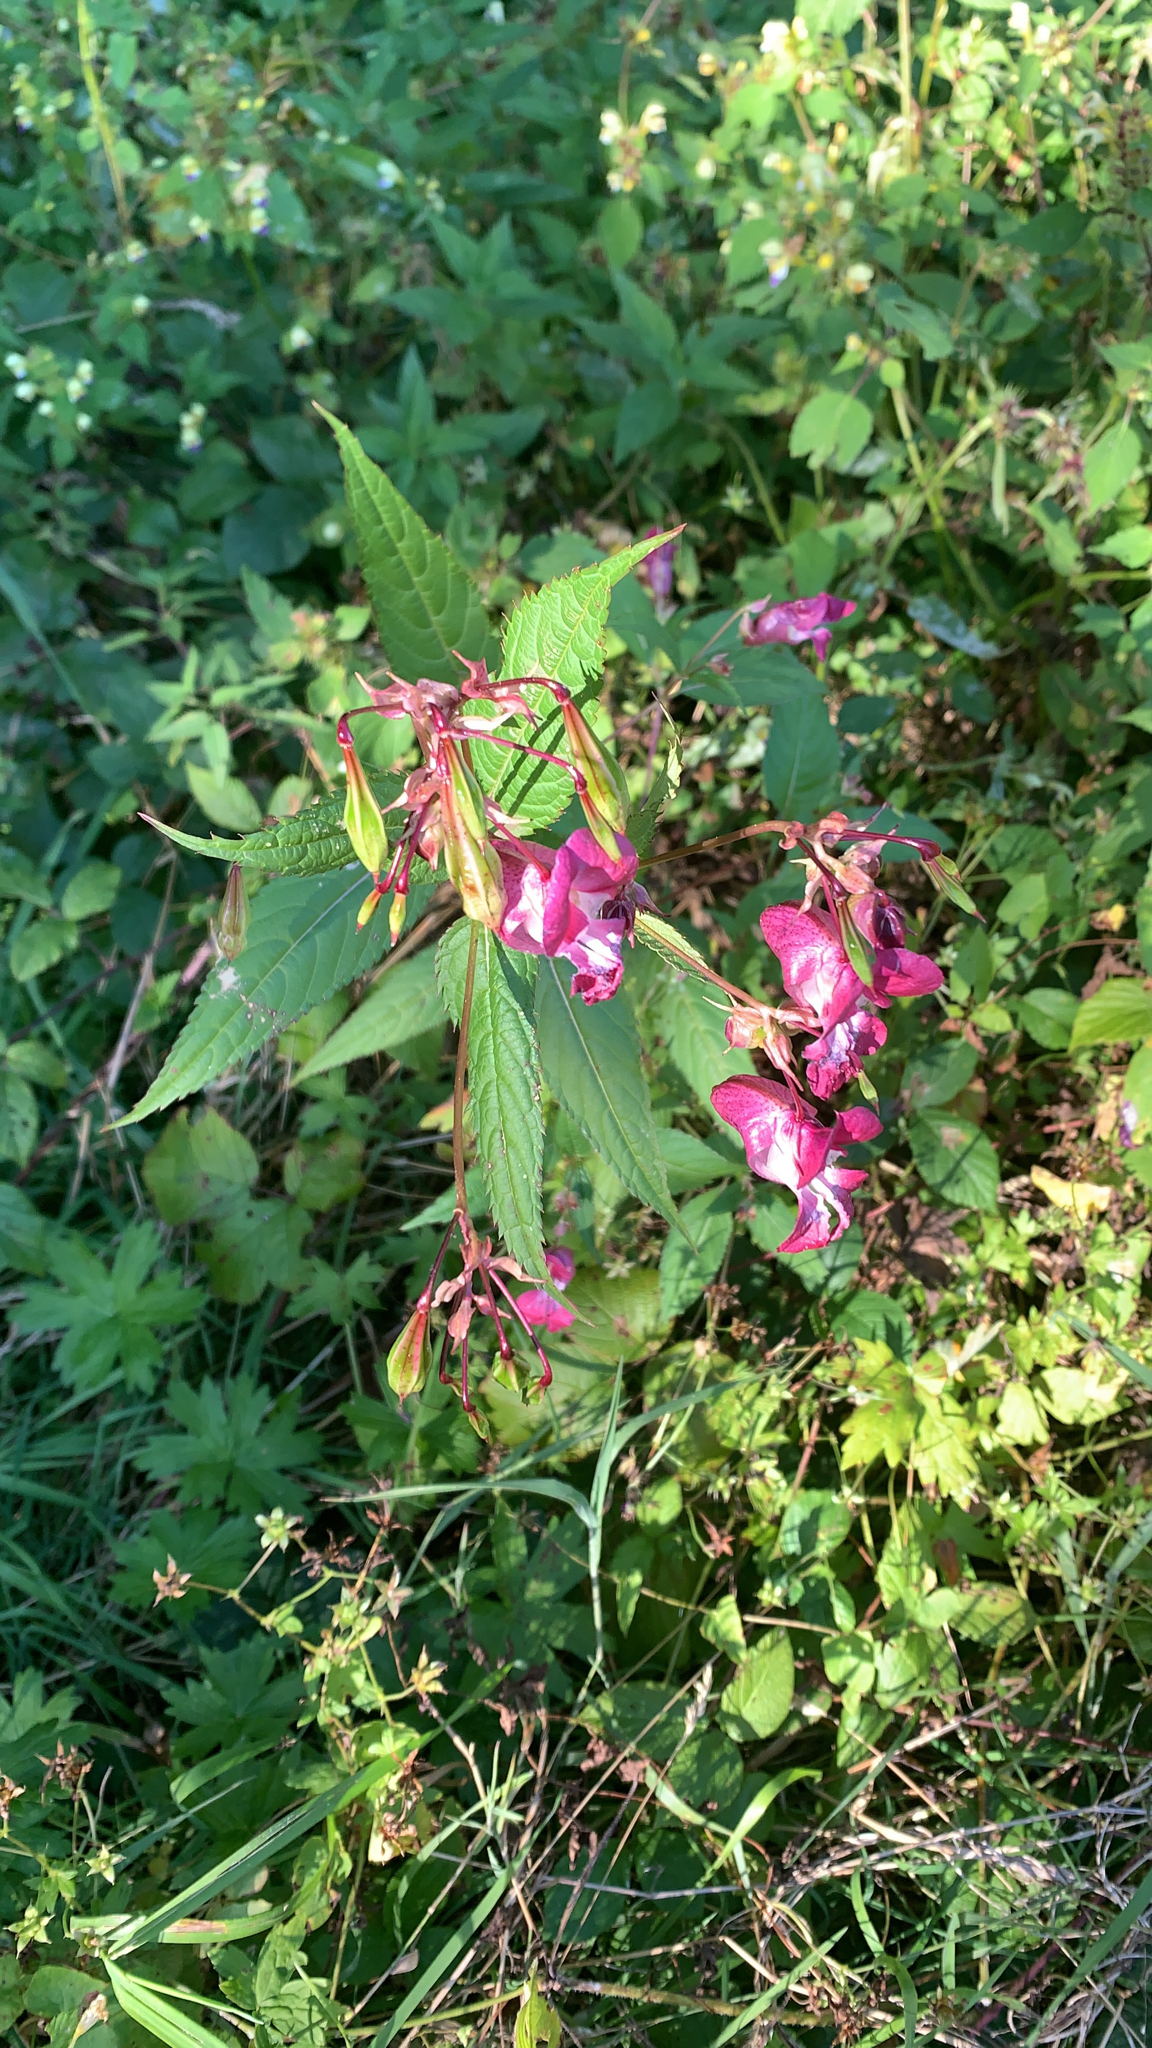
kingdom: Plantae
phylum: Tracheophyta
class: Magnoliopsida
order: Ericales
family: Balsaminaceae
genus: Impatiens
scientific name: Impatiens glandulifera
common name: Himalayan balsam
